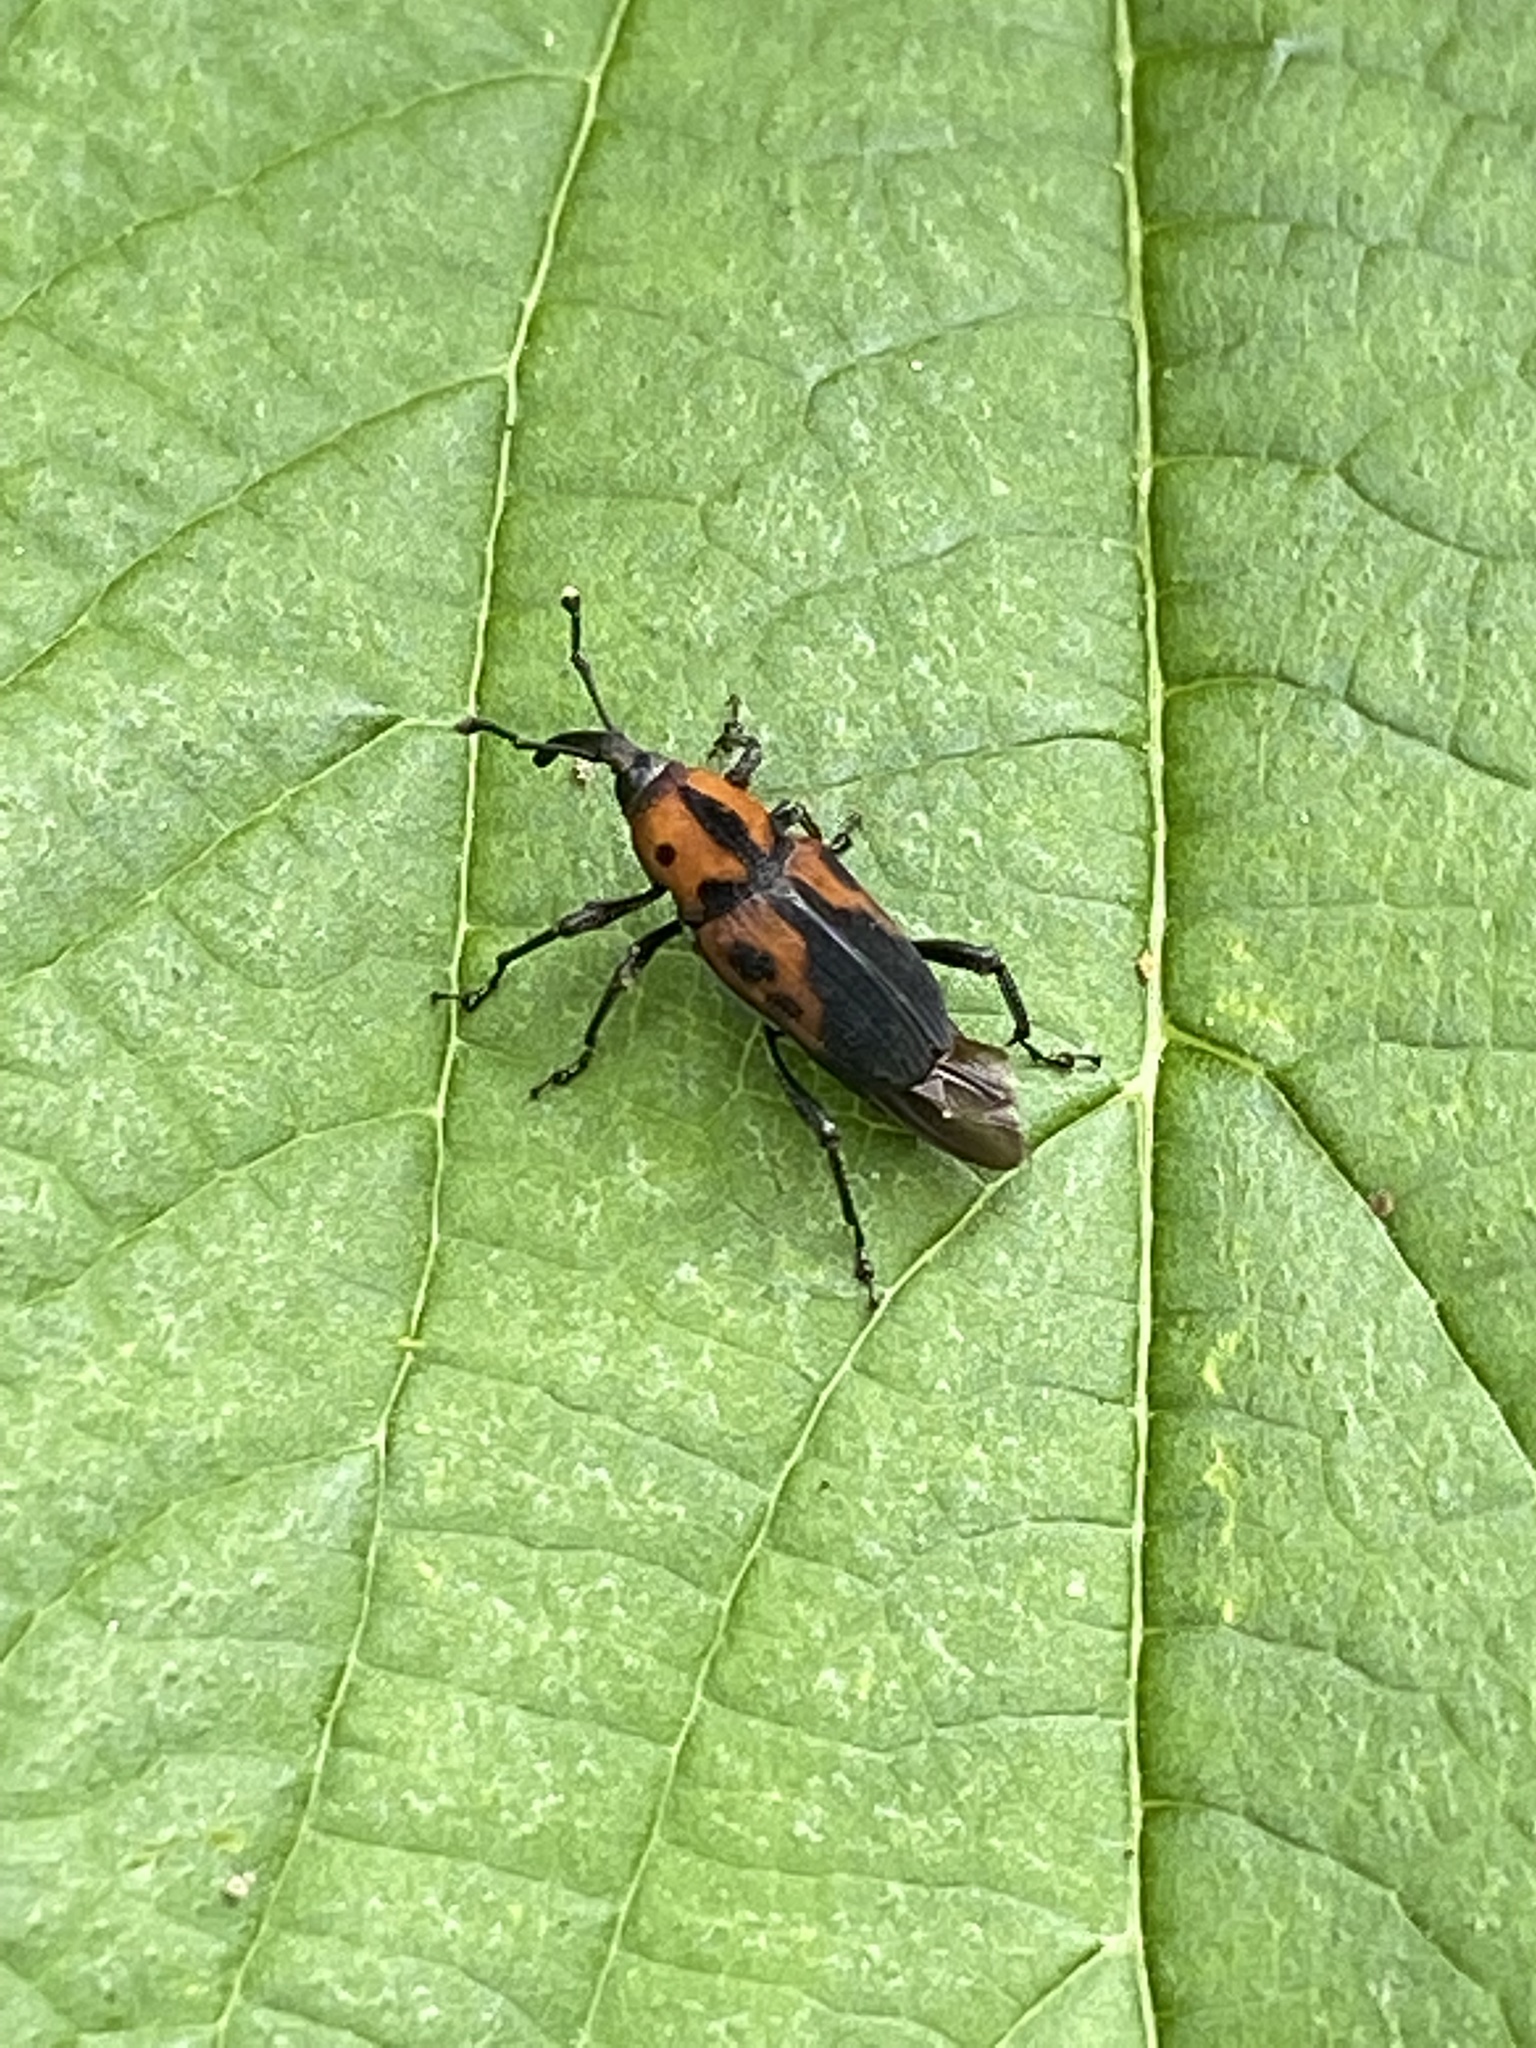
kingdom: Animalia
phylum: Arthropoda
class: Insecta
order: Coleoptera
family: Dryophthoridae
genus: Rhodobaenus
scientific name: Rhodobaenus quinquepunctatus
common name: Cocklebur weevil
